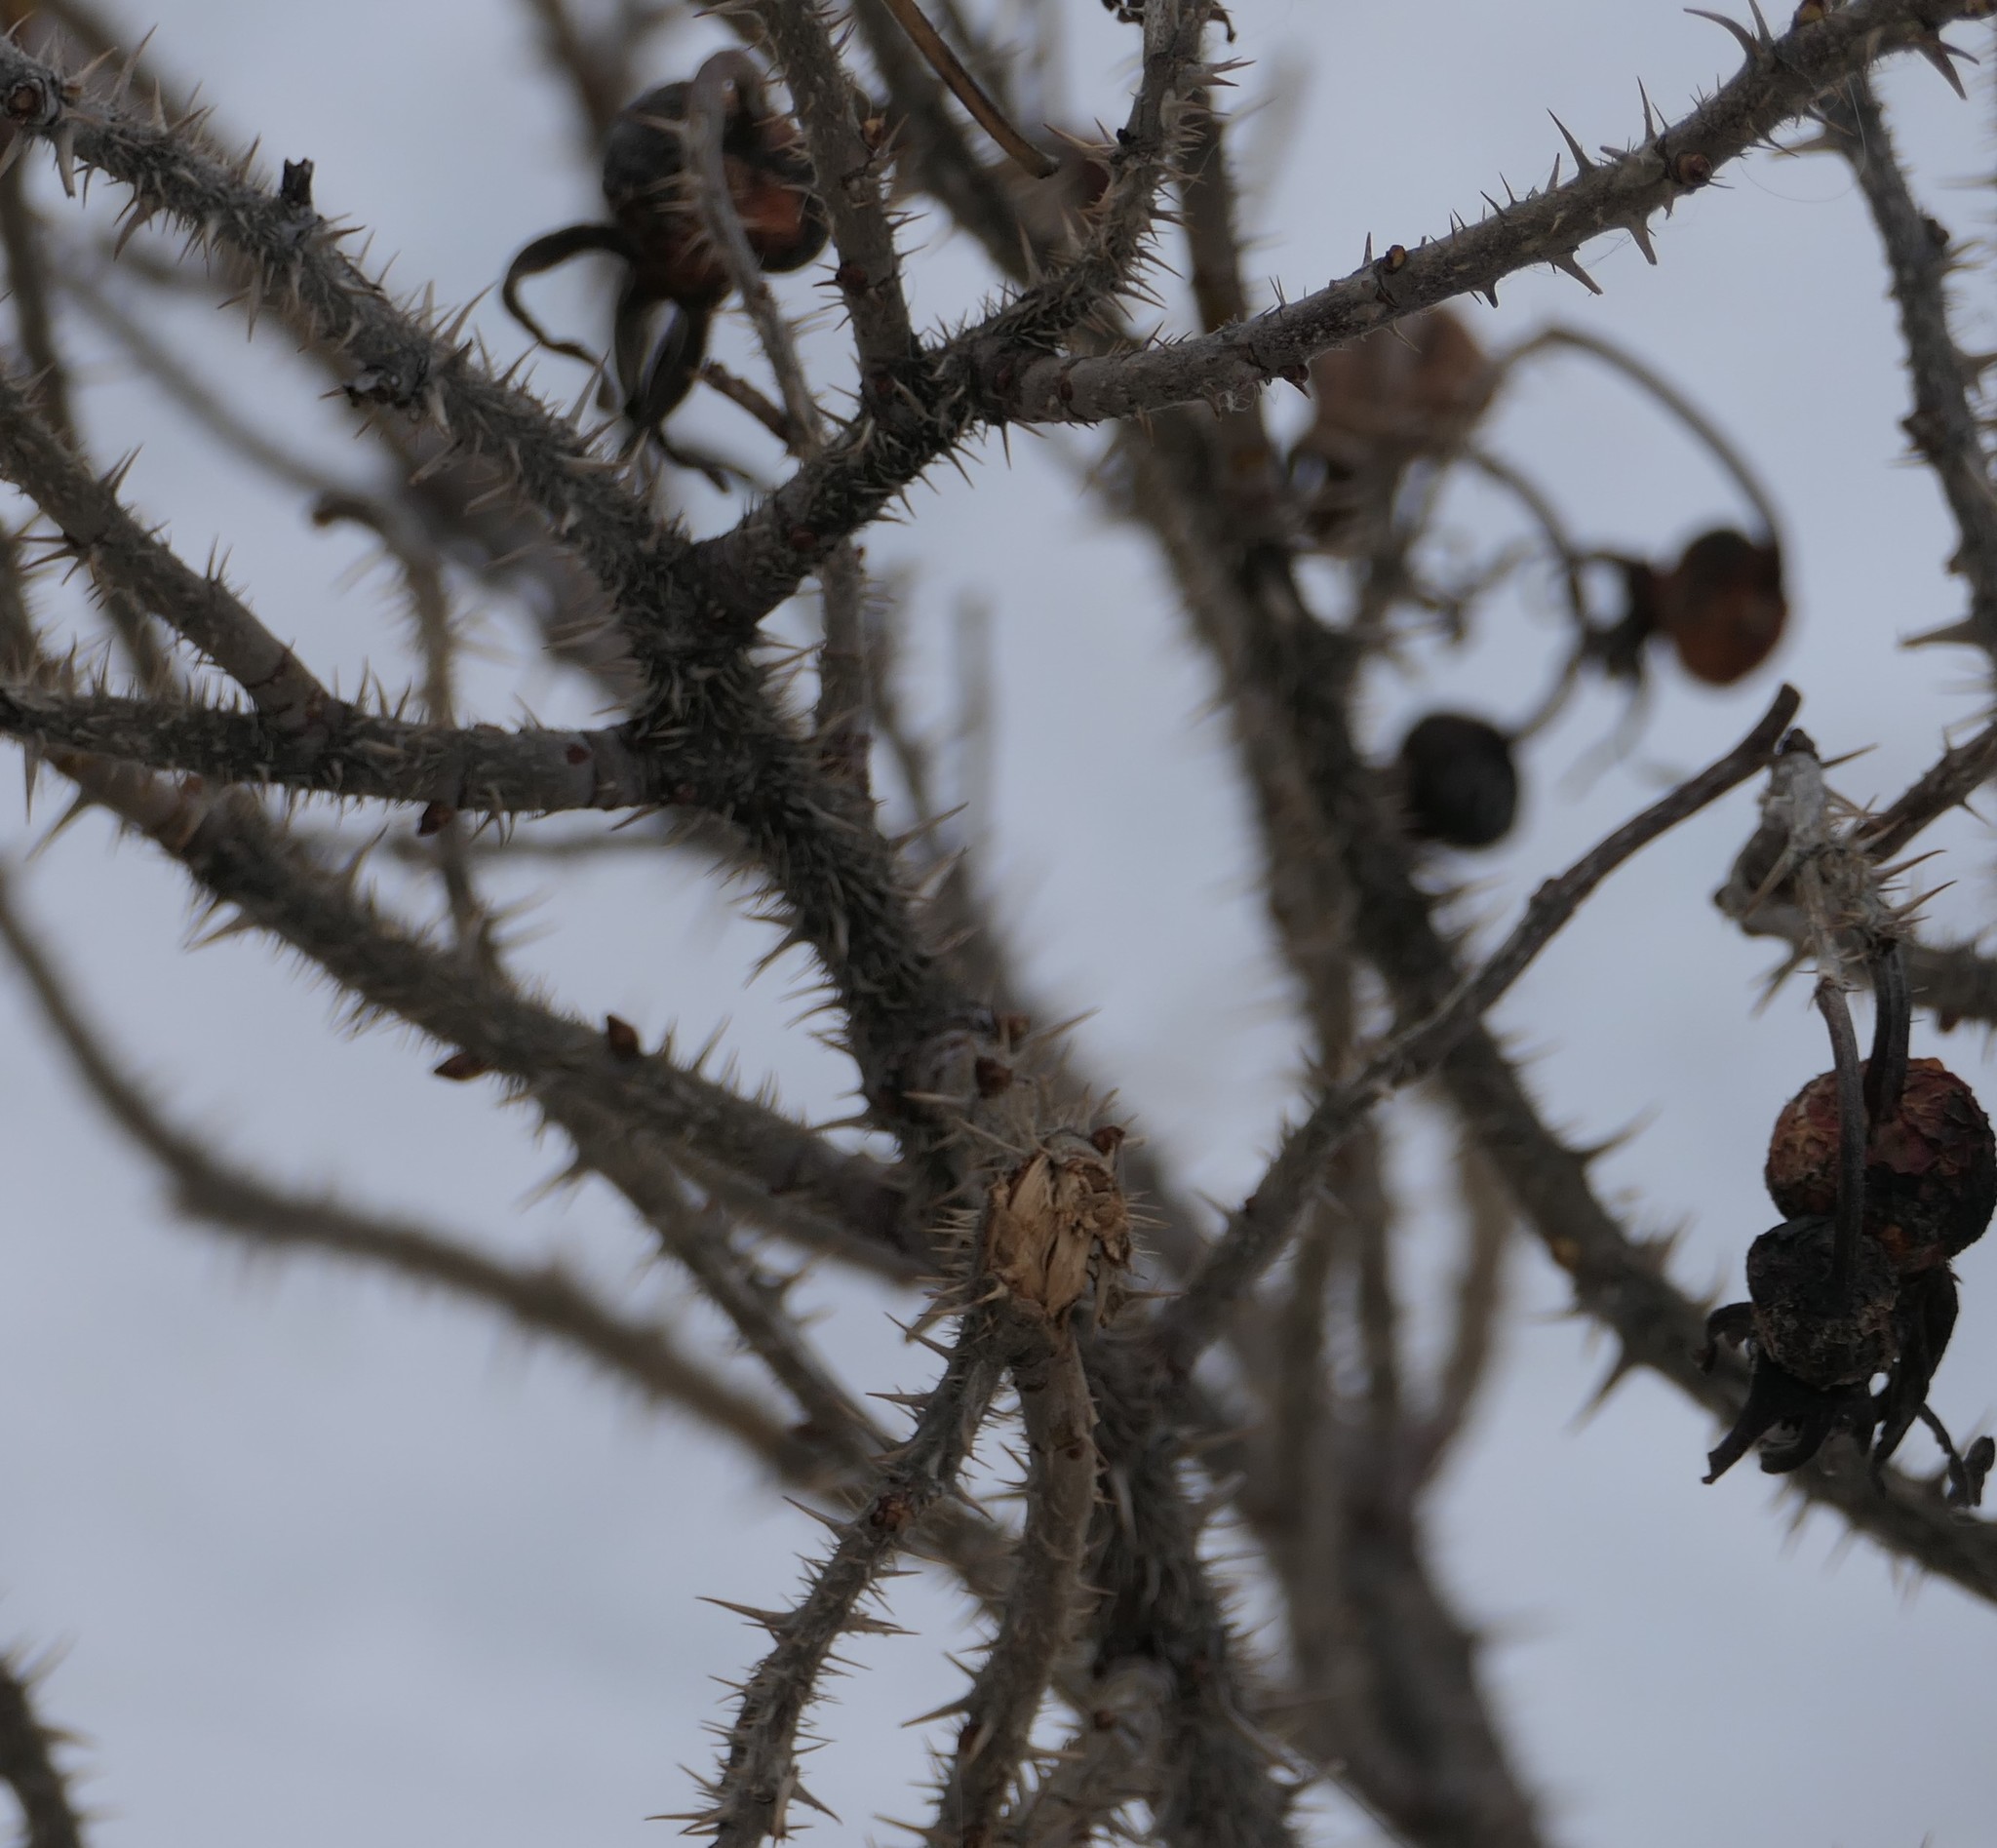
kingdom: Plantae
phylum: Tracheophyta
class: Magnoliopsida
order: Rosales
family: Rosaceae
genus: Rosa
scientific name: Rosa rugosa
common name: Japanese rose
